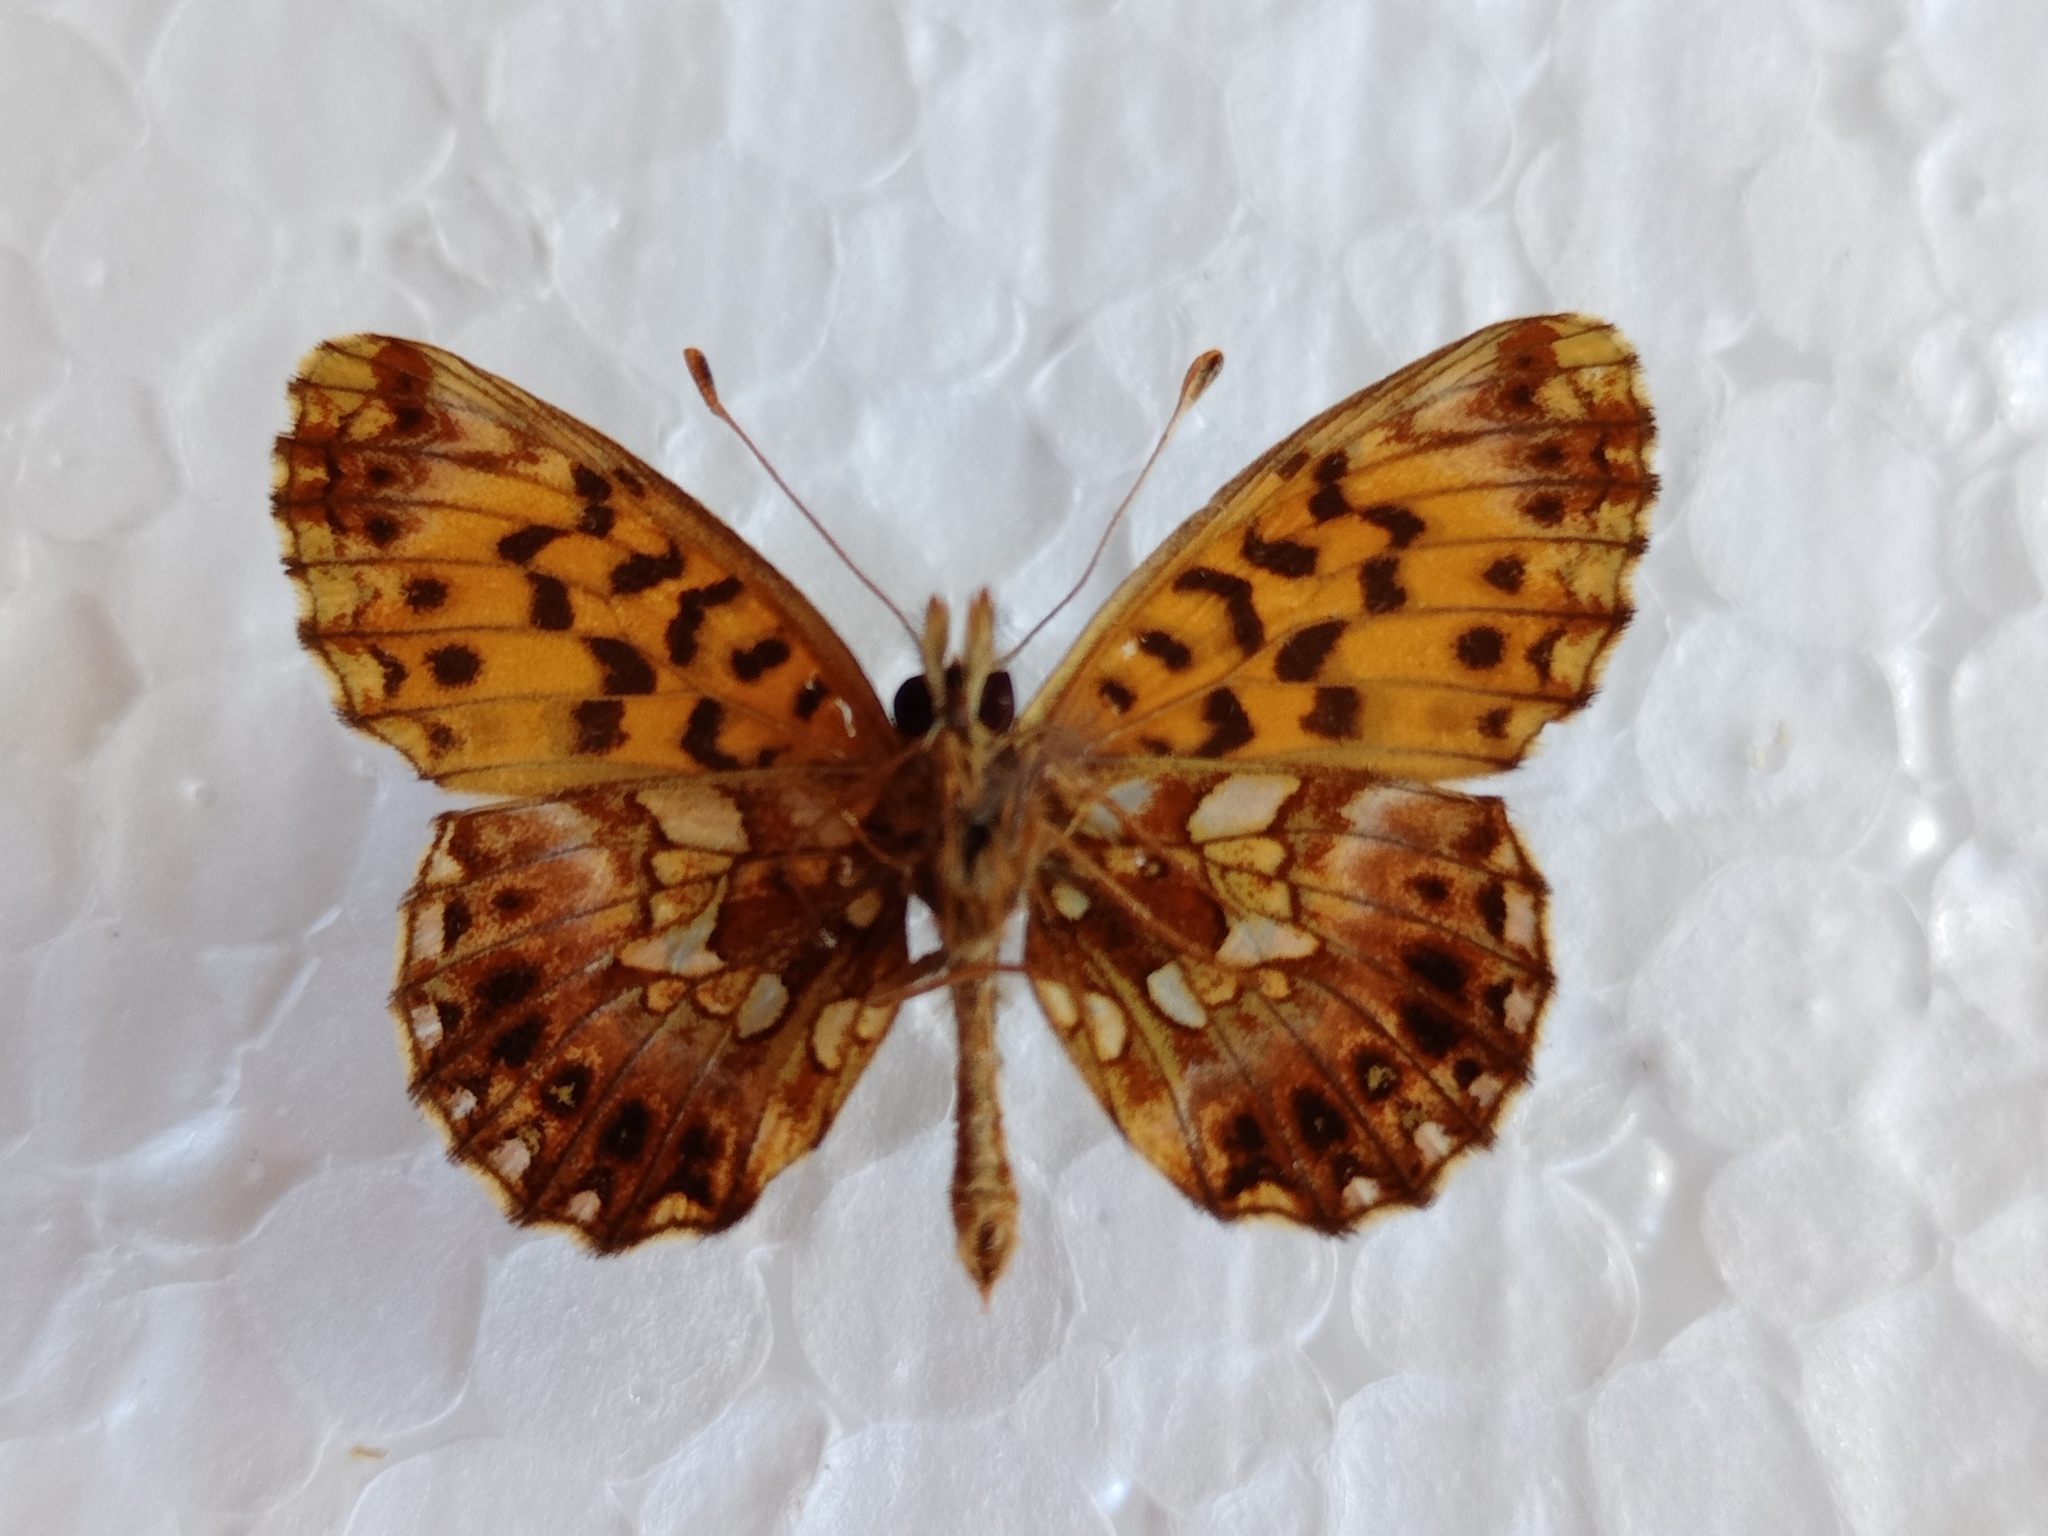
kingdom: Animalia
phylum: Arthropoda
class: Insecta
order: Lepidoptera
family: Nymphalidae
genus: Boloria
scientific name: Boloria dia
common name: Weaver's fritillary
